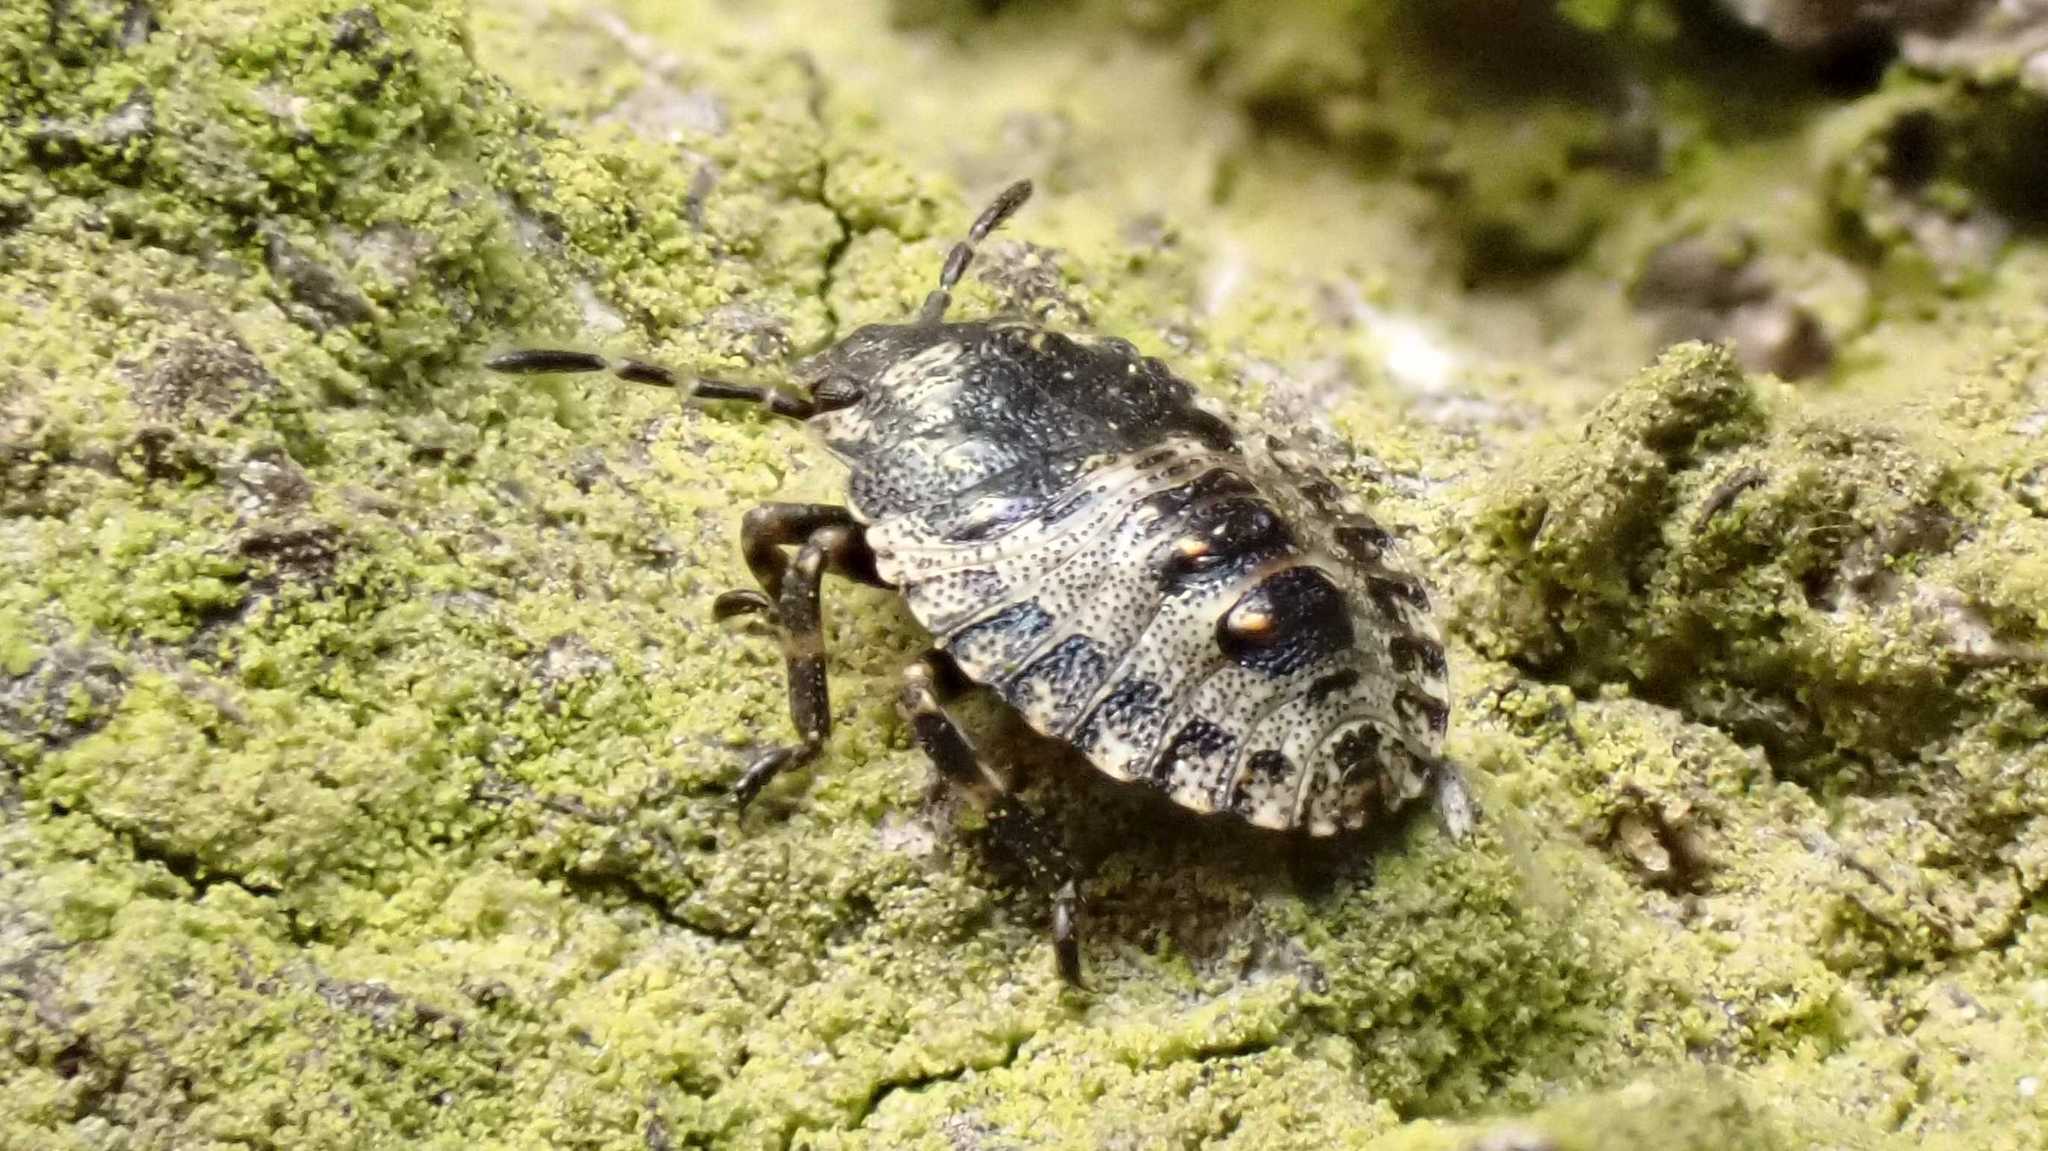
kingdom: Animalia
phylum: Arthropoda
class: Insecta
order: Hemiptera
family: Pentatomidae
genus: Pentatoma
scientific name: Pentatoma rufipes
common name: Forest bug
